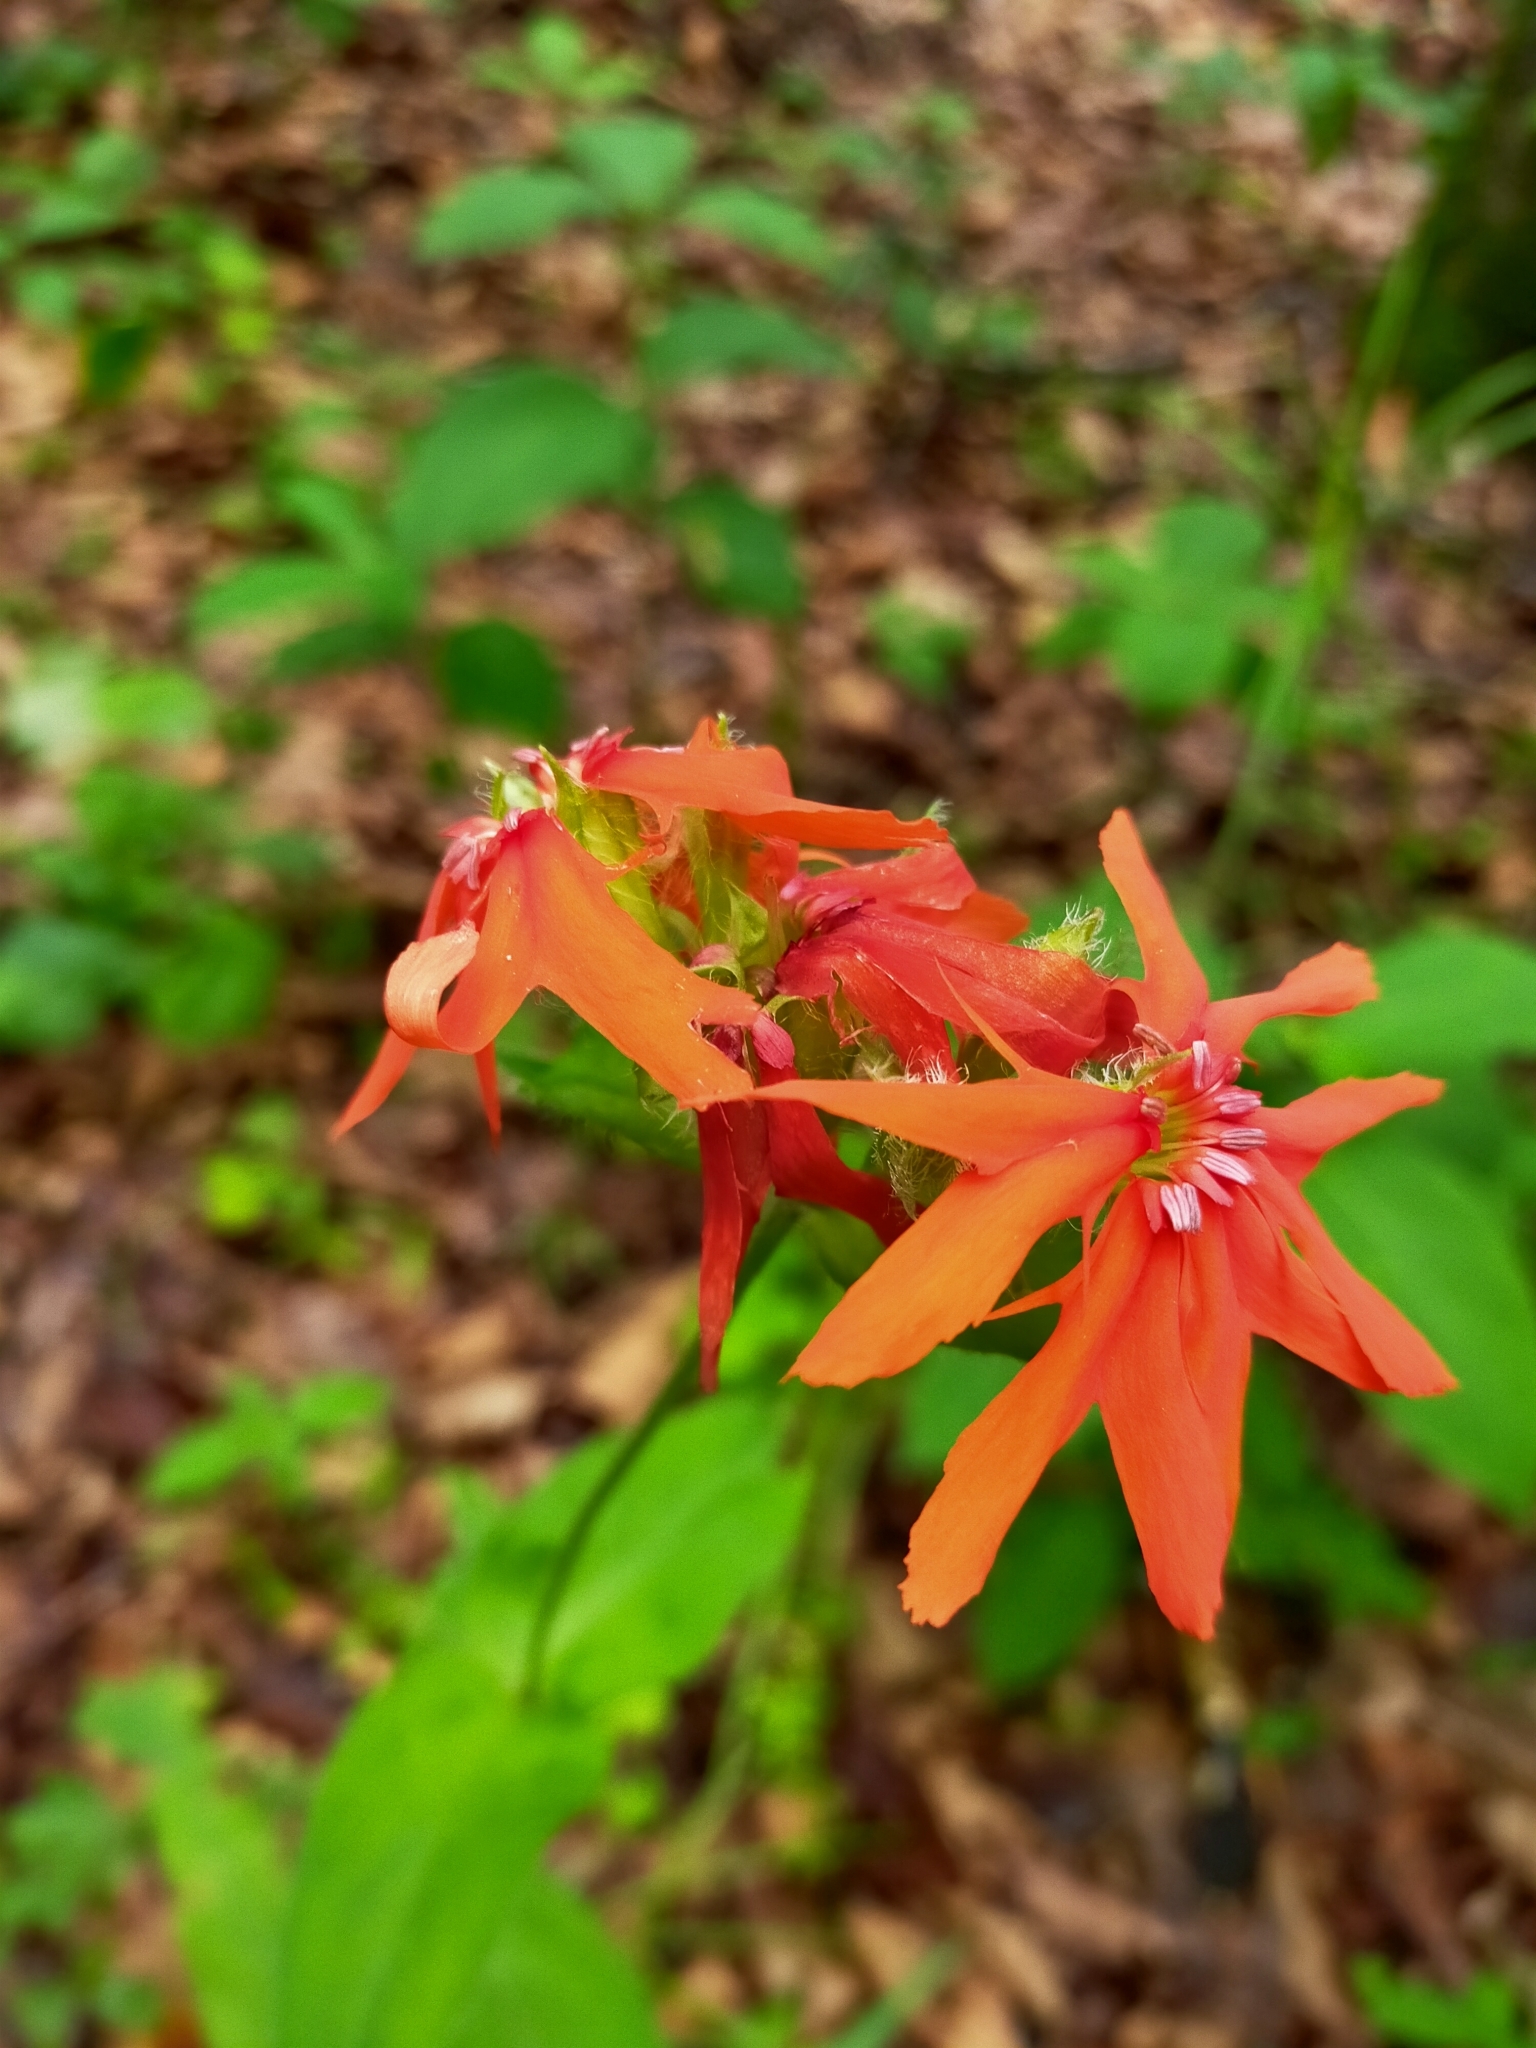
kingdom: Plantae
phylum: Tracheophyta
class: Magnoliopsida
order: Caryophyllales
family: Caryophyllaceae
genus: Silene
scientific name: Silene banksia
